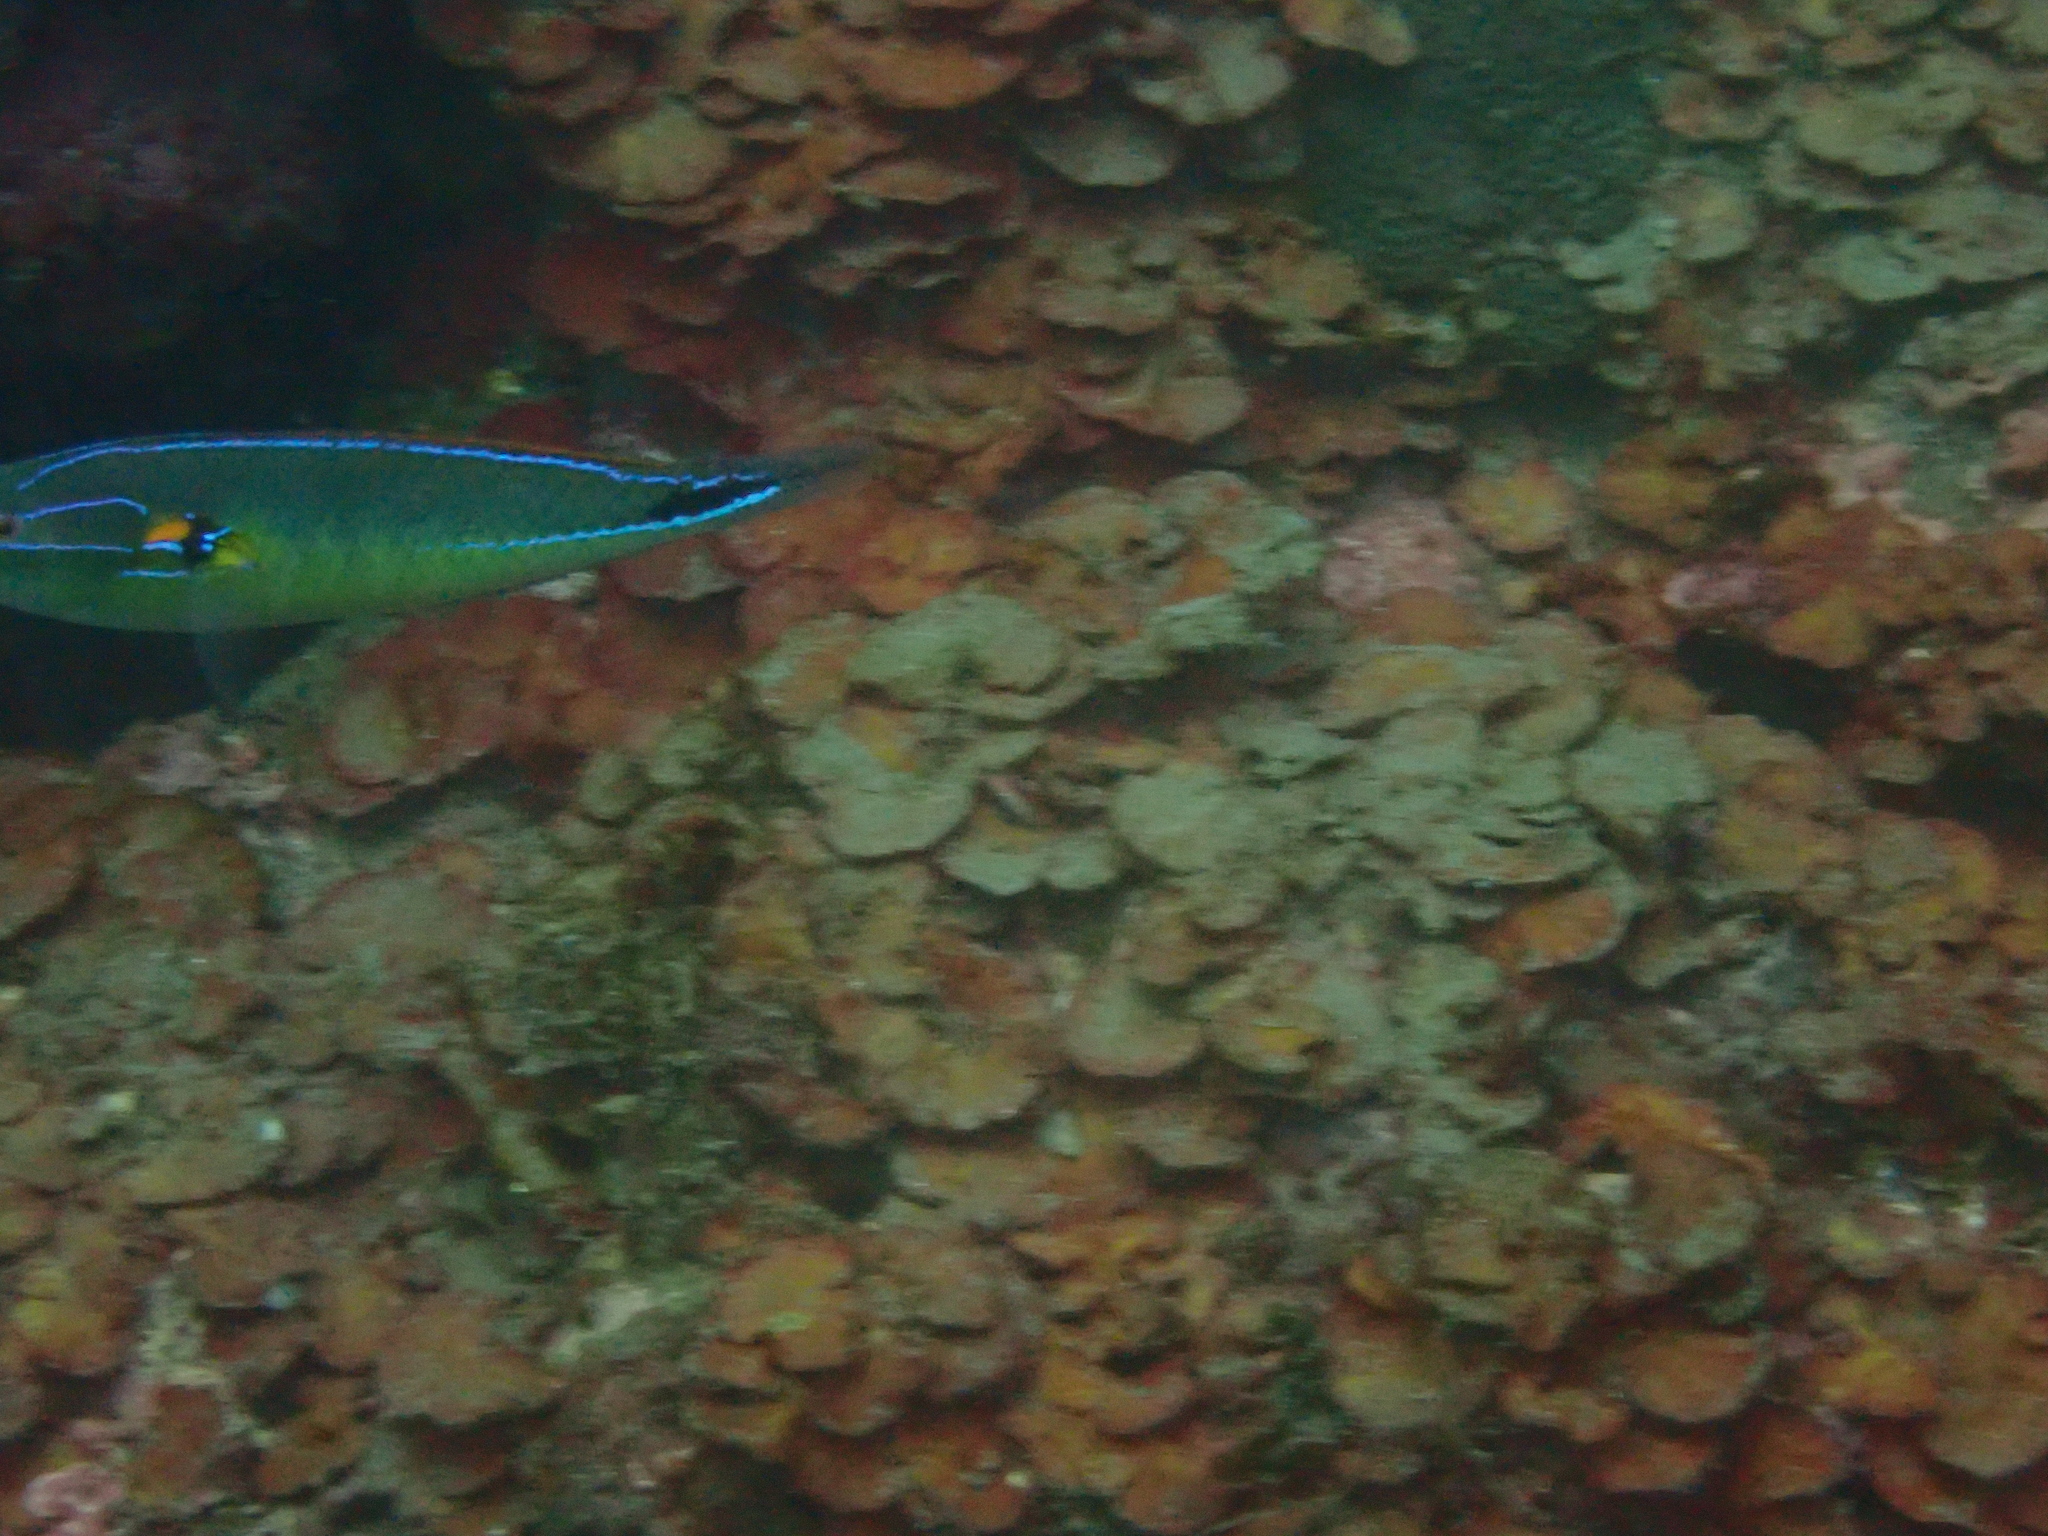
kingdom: Animalia
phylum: Chordata
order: Perciformes
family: Labridae
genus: Stethojulis
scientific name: Stethojulis terina
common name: Cutribbon wrasse
